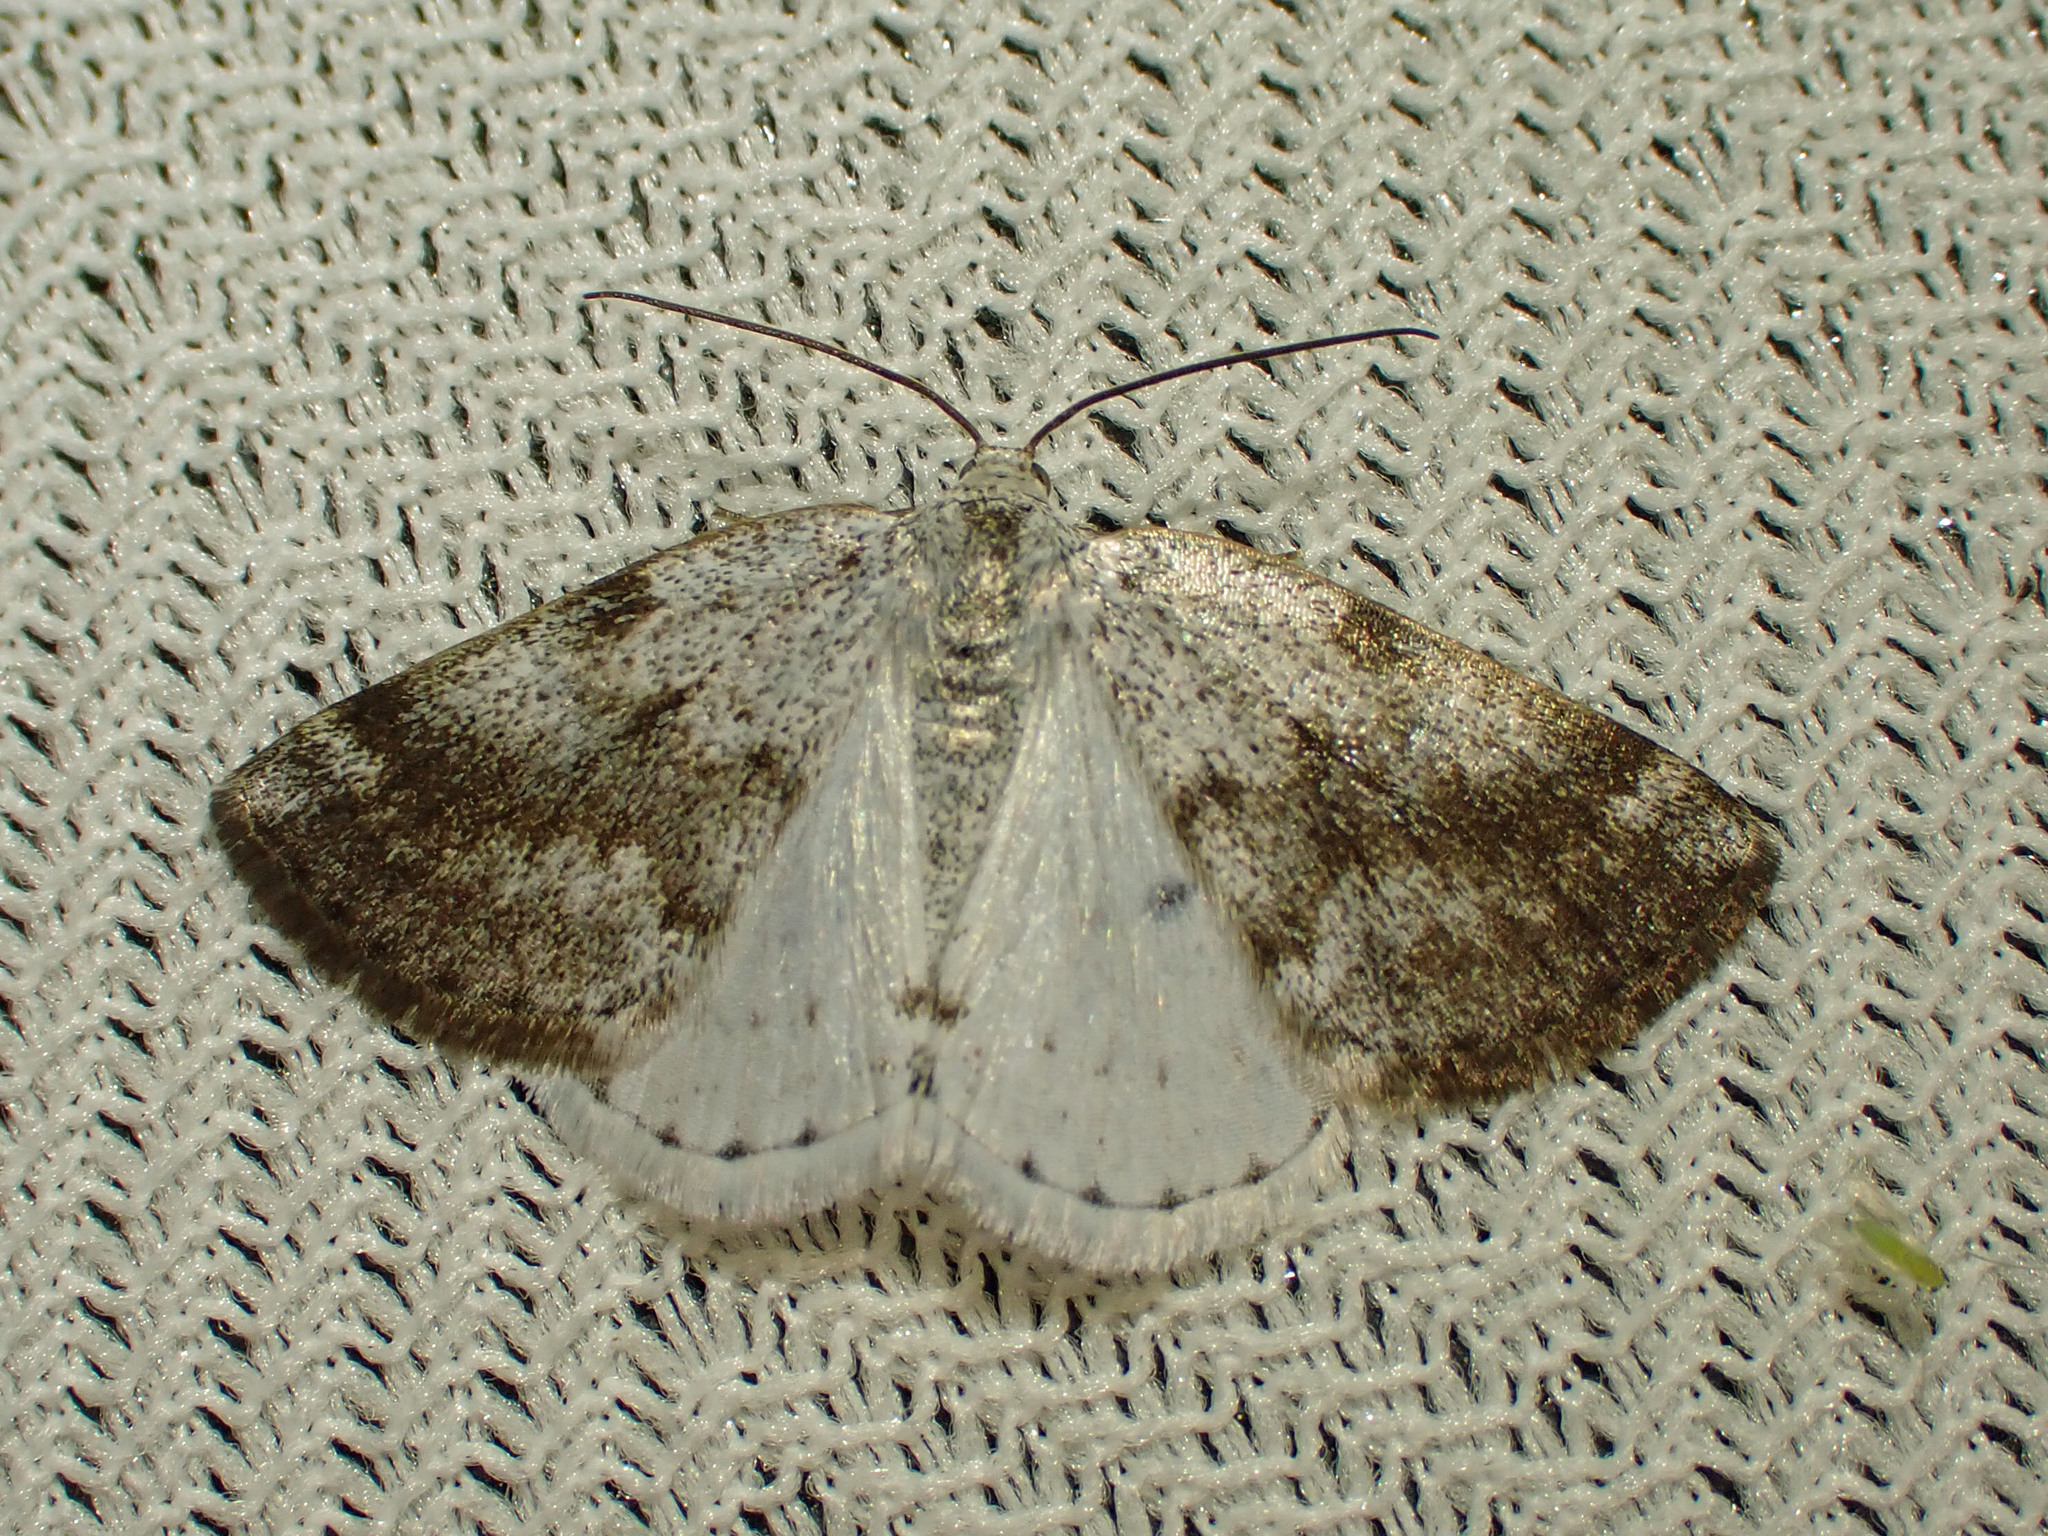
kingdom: Animalia
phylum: Arthropoda
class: Insecta
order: Lepidoptera
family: Geometridae
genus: Lomographa
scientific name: Lomographa semiclarata
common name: Bluish spring moth
